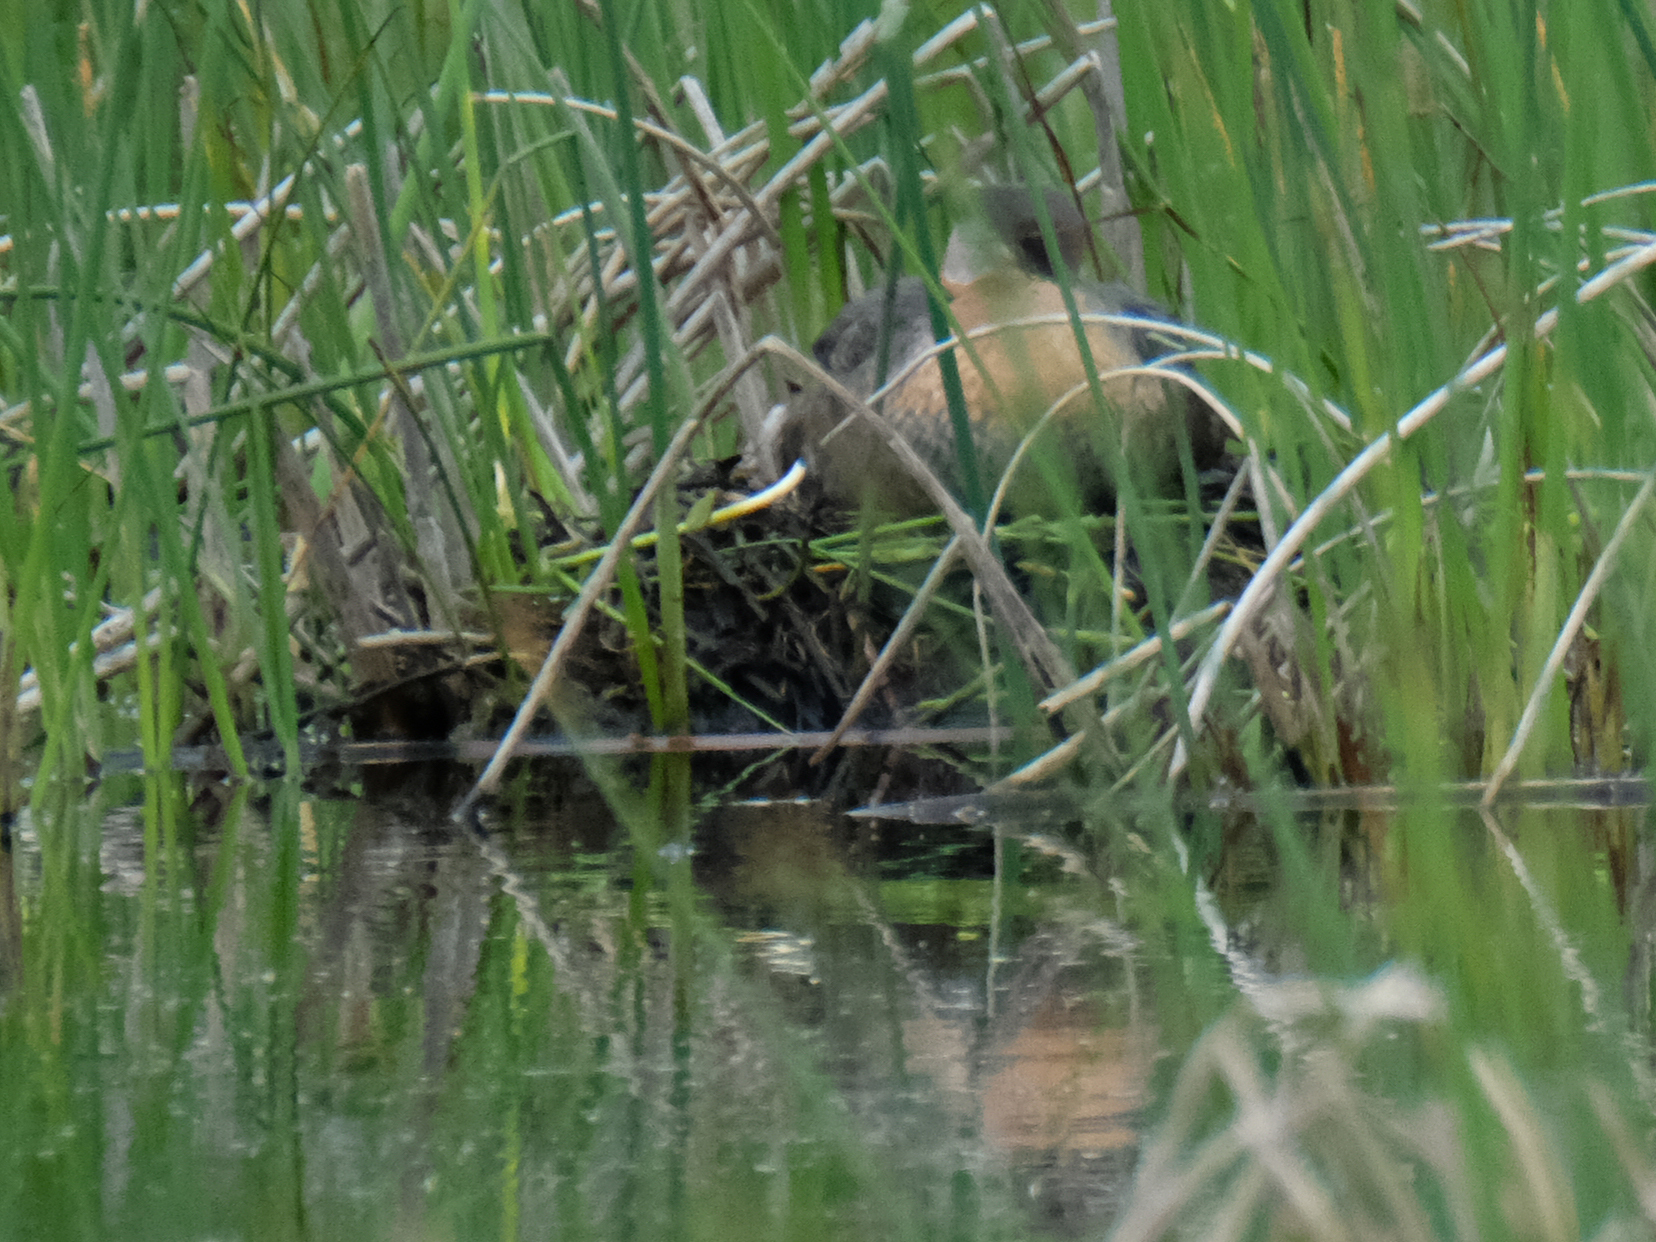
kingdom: Animalia
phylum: Chordata
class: Aves
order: Podicipediformes
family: Podicipedidae
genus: Podiceps
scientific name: Podiceps grisegena
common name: Red-necked grebe
